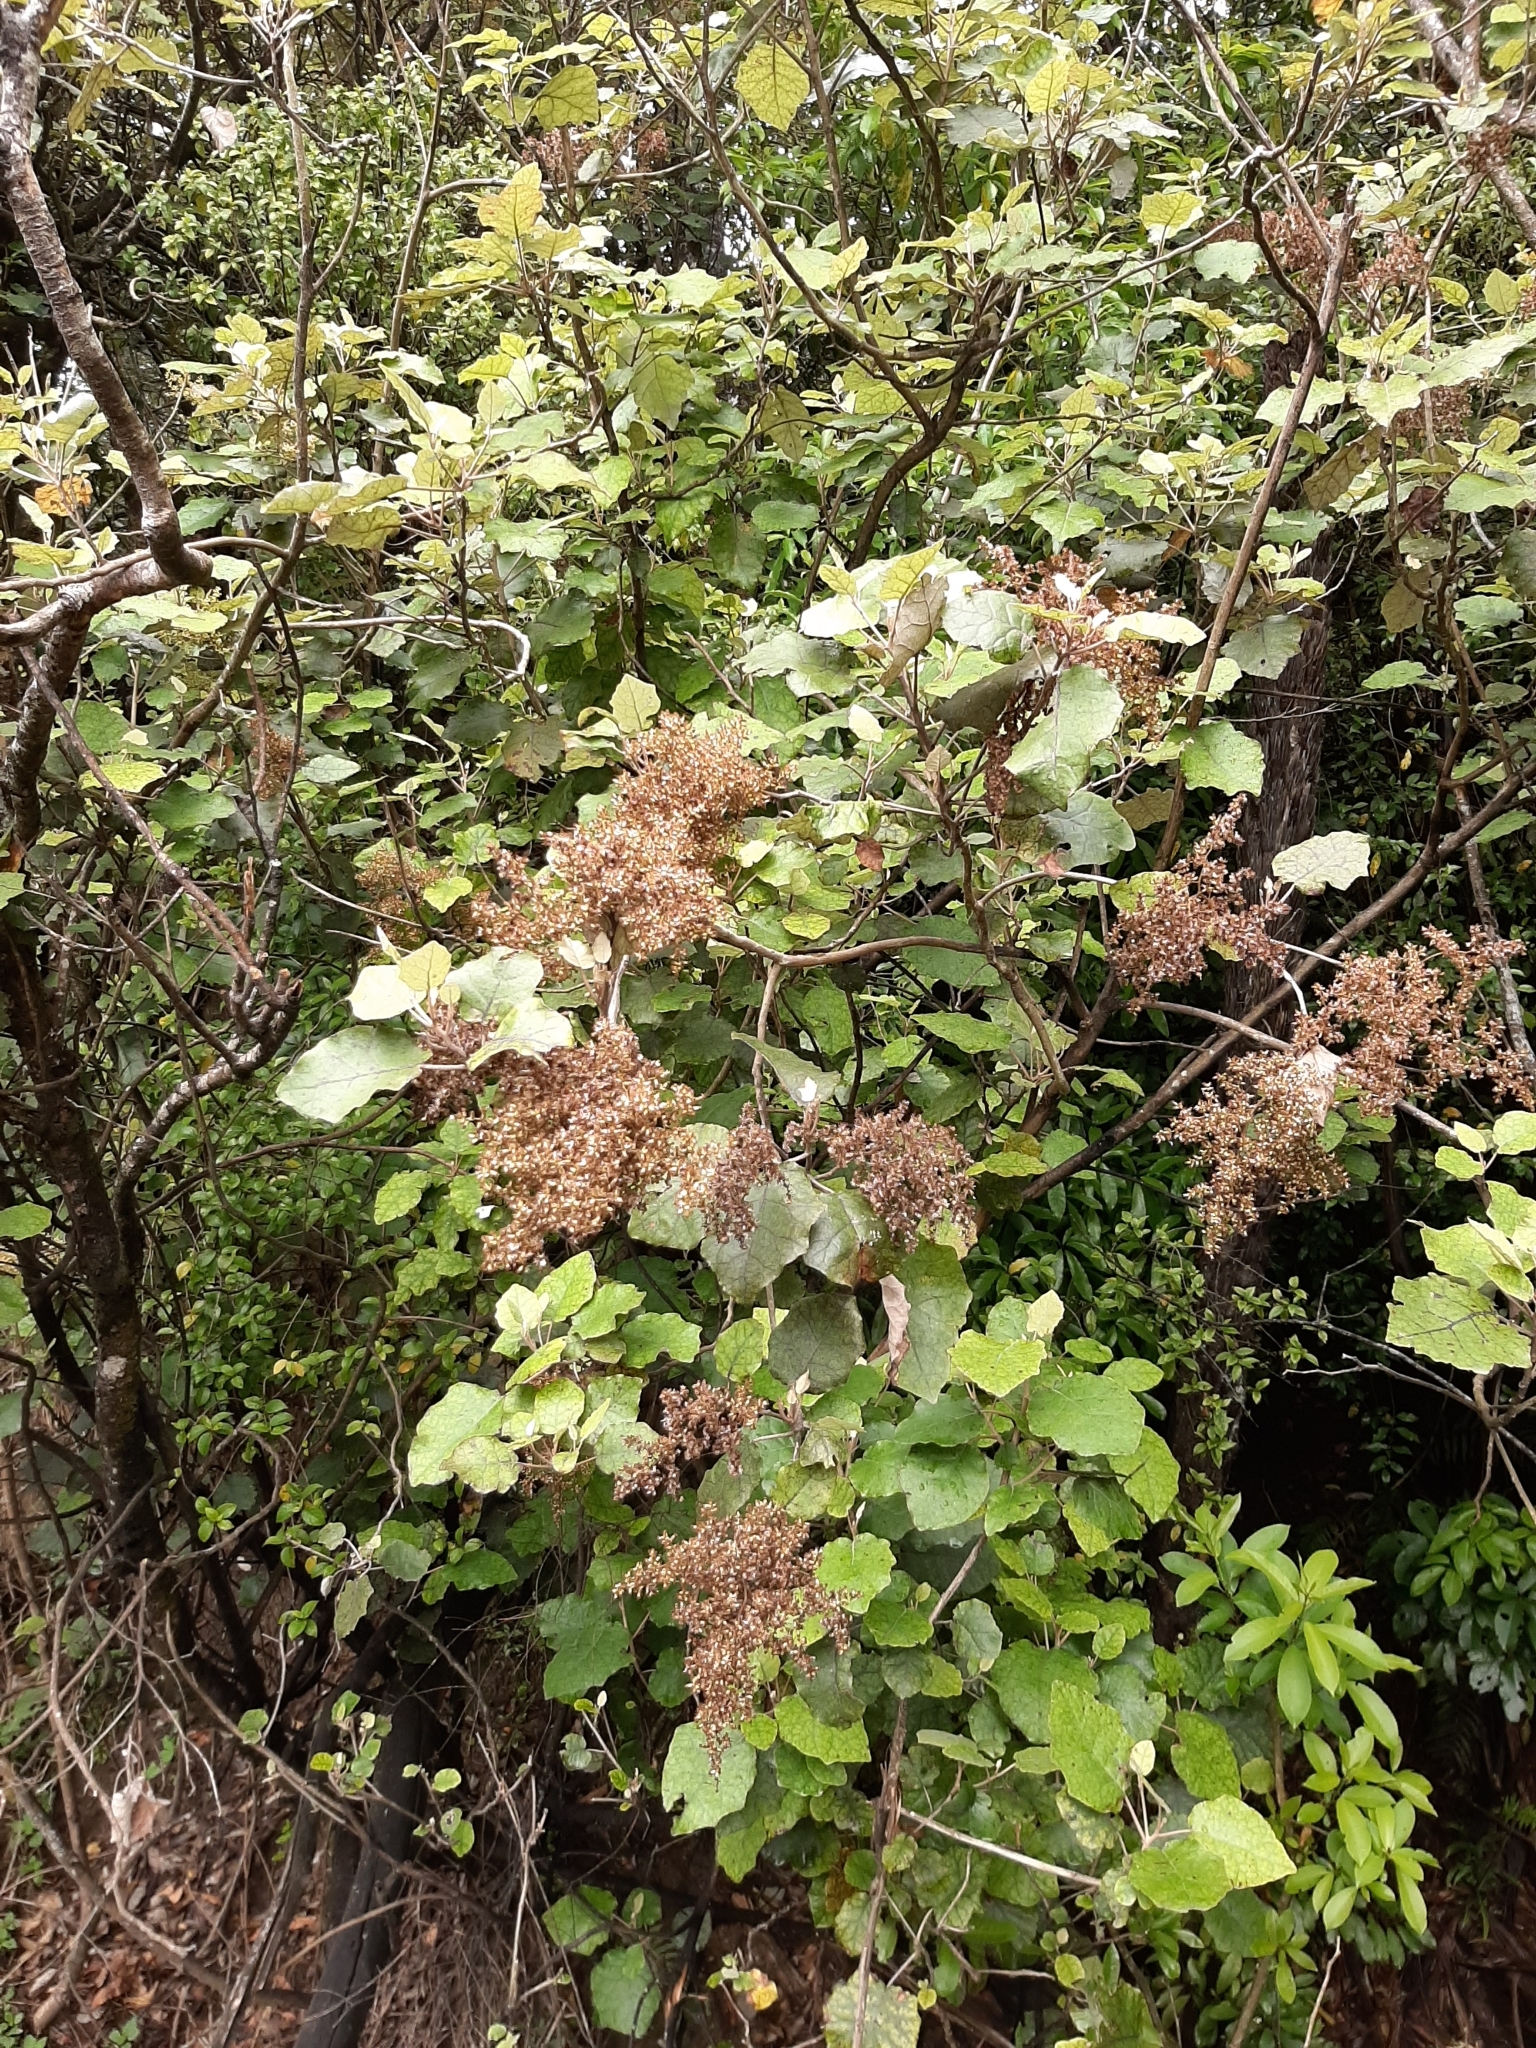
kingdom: Plantae
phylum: Tracheophyta
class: Magnoliopsida
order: Asterales
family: Asteraceae
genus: Brachyglottis
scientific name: Brachyglottis repanda
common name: Hedge ragwort
